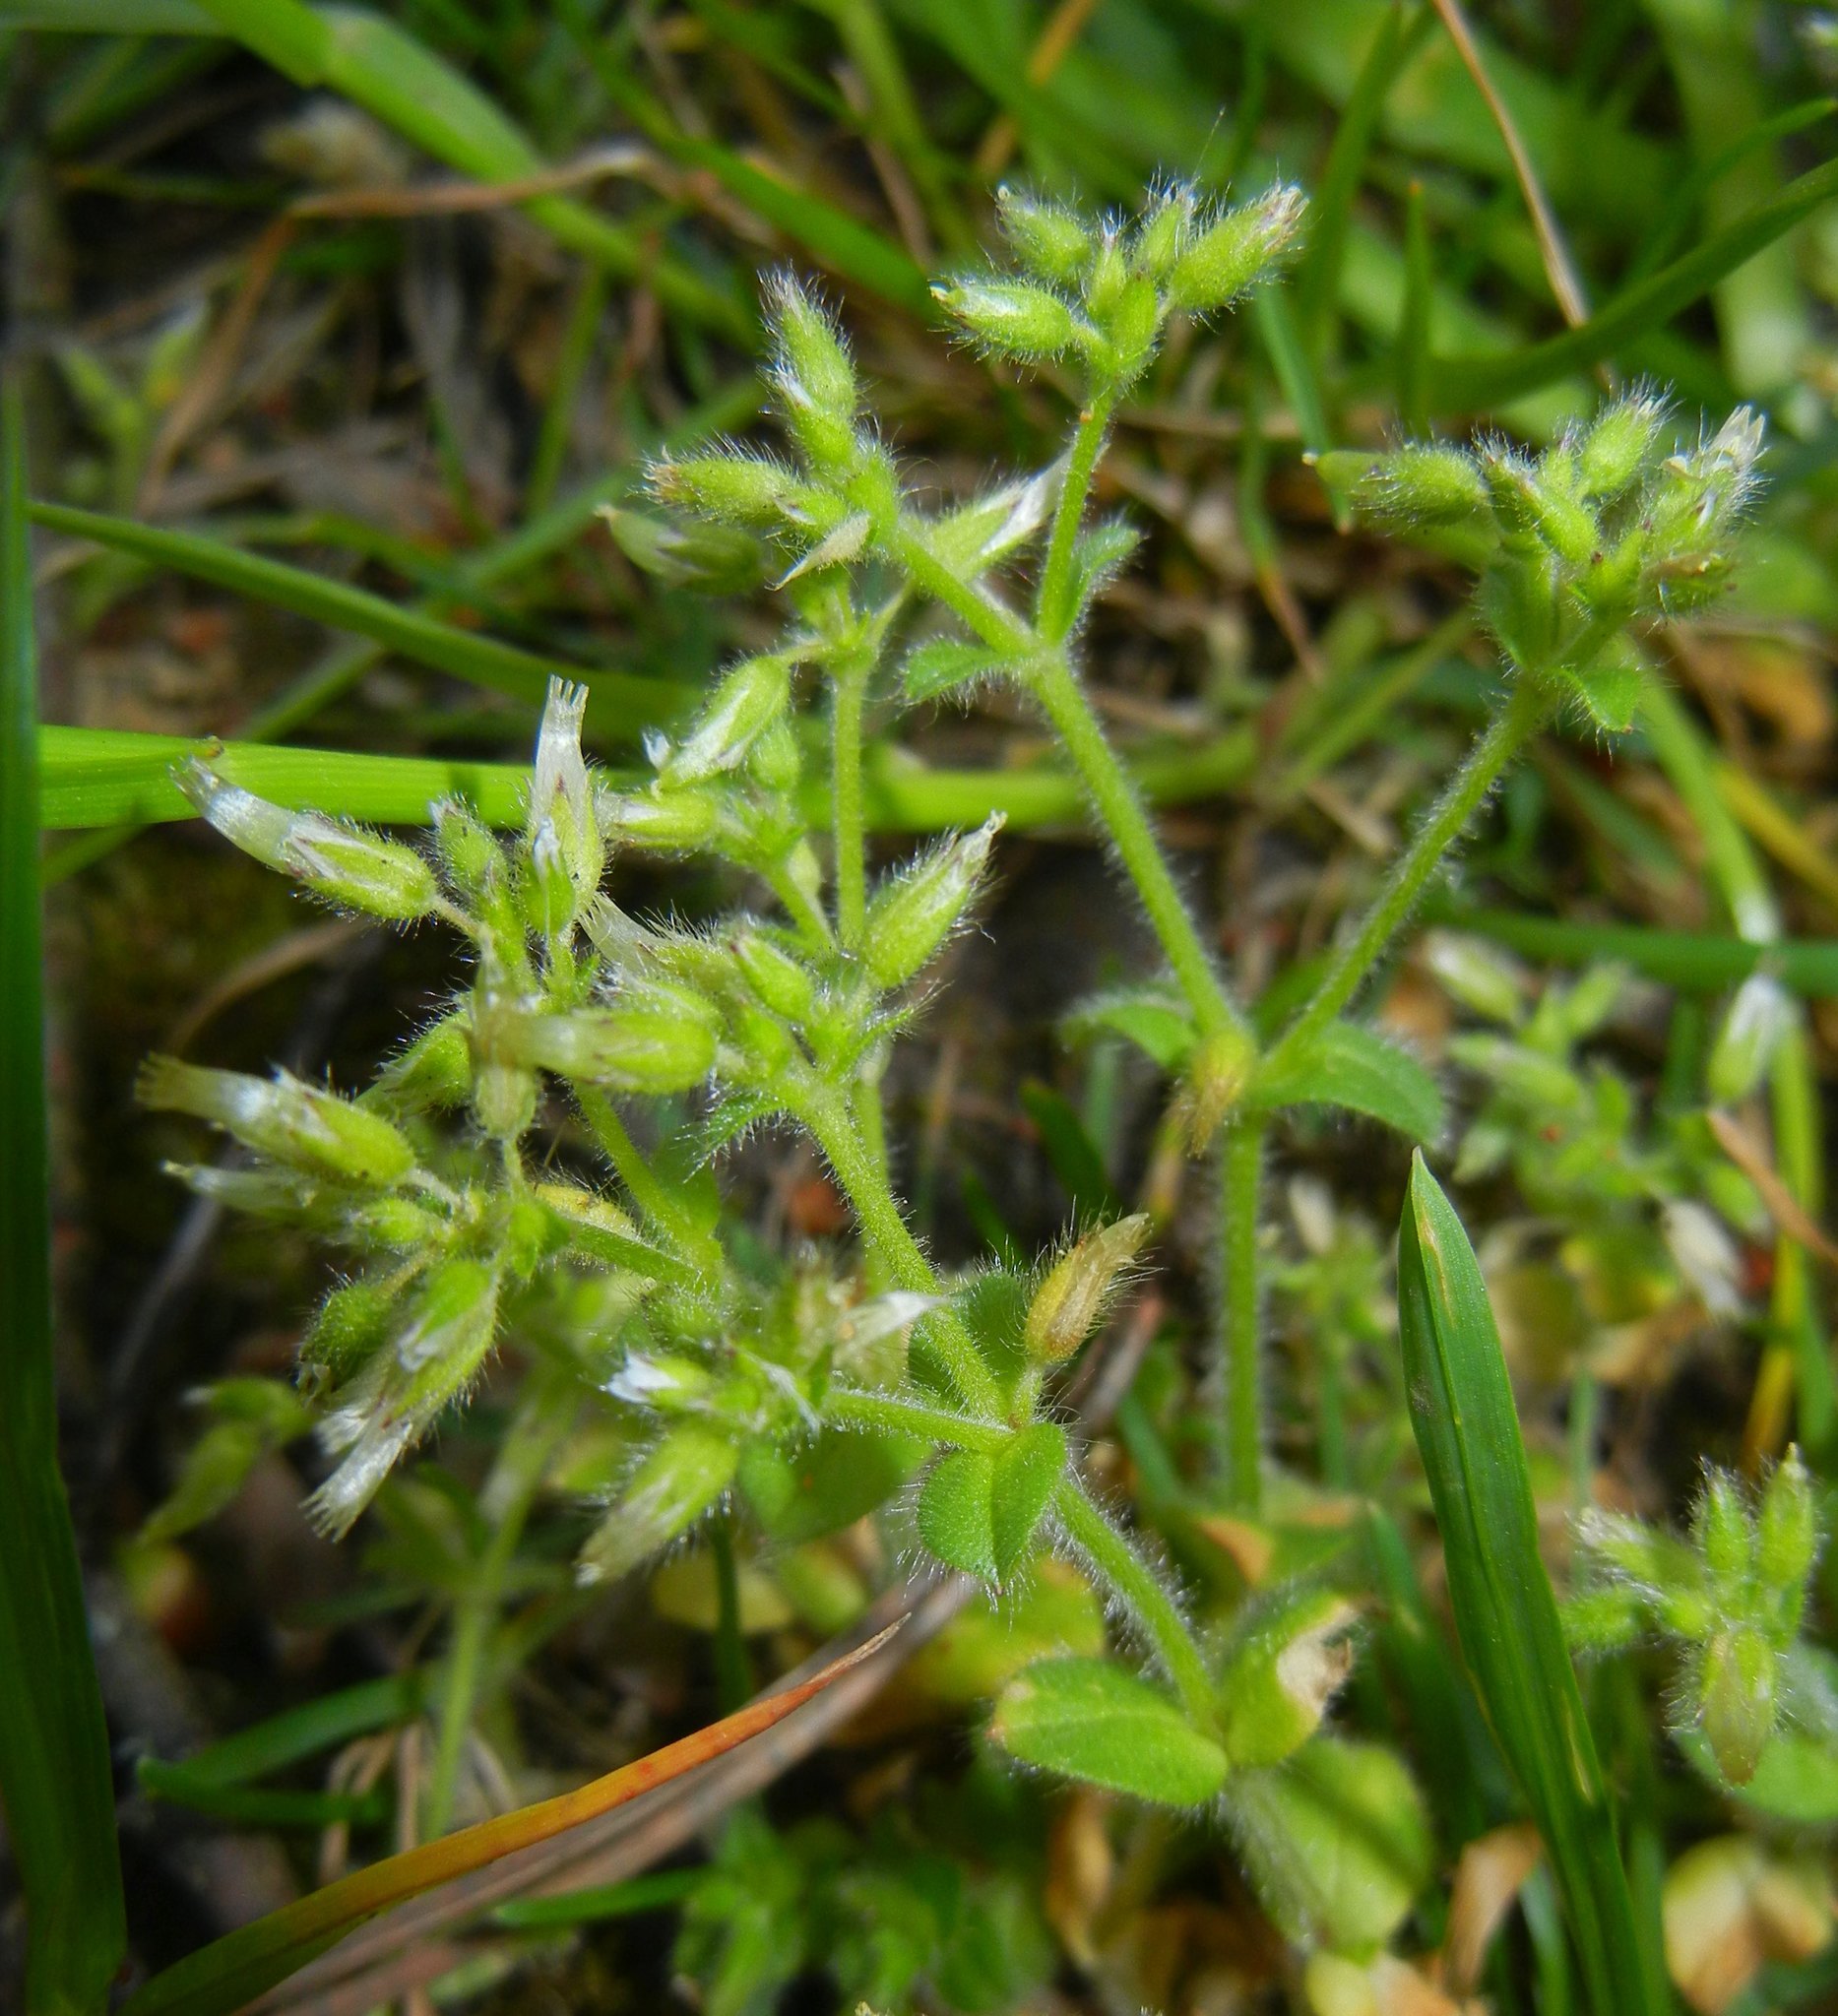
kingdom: Plantae
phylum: Tracheophyta
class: Magnoliopsida
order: Caryophyllales
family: Caryophyllaceae
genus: Cerastium
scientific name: Cerastium glomeratum
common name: Sticky chickweed
